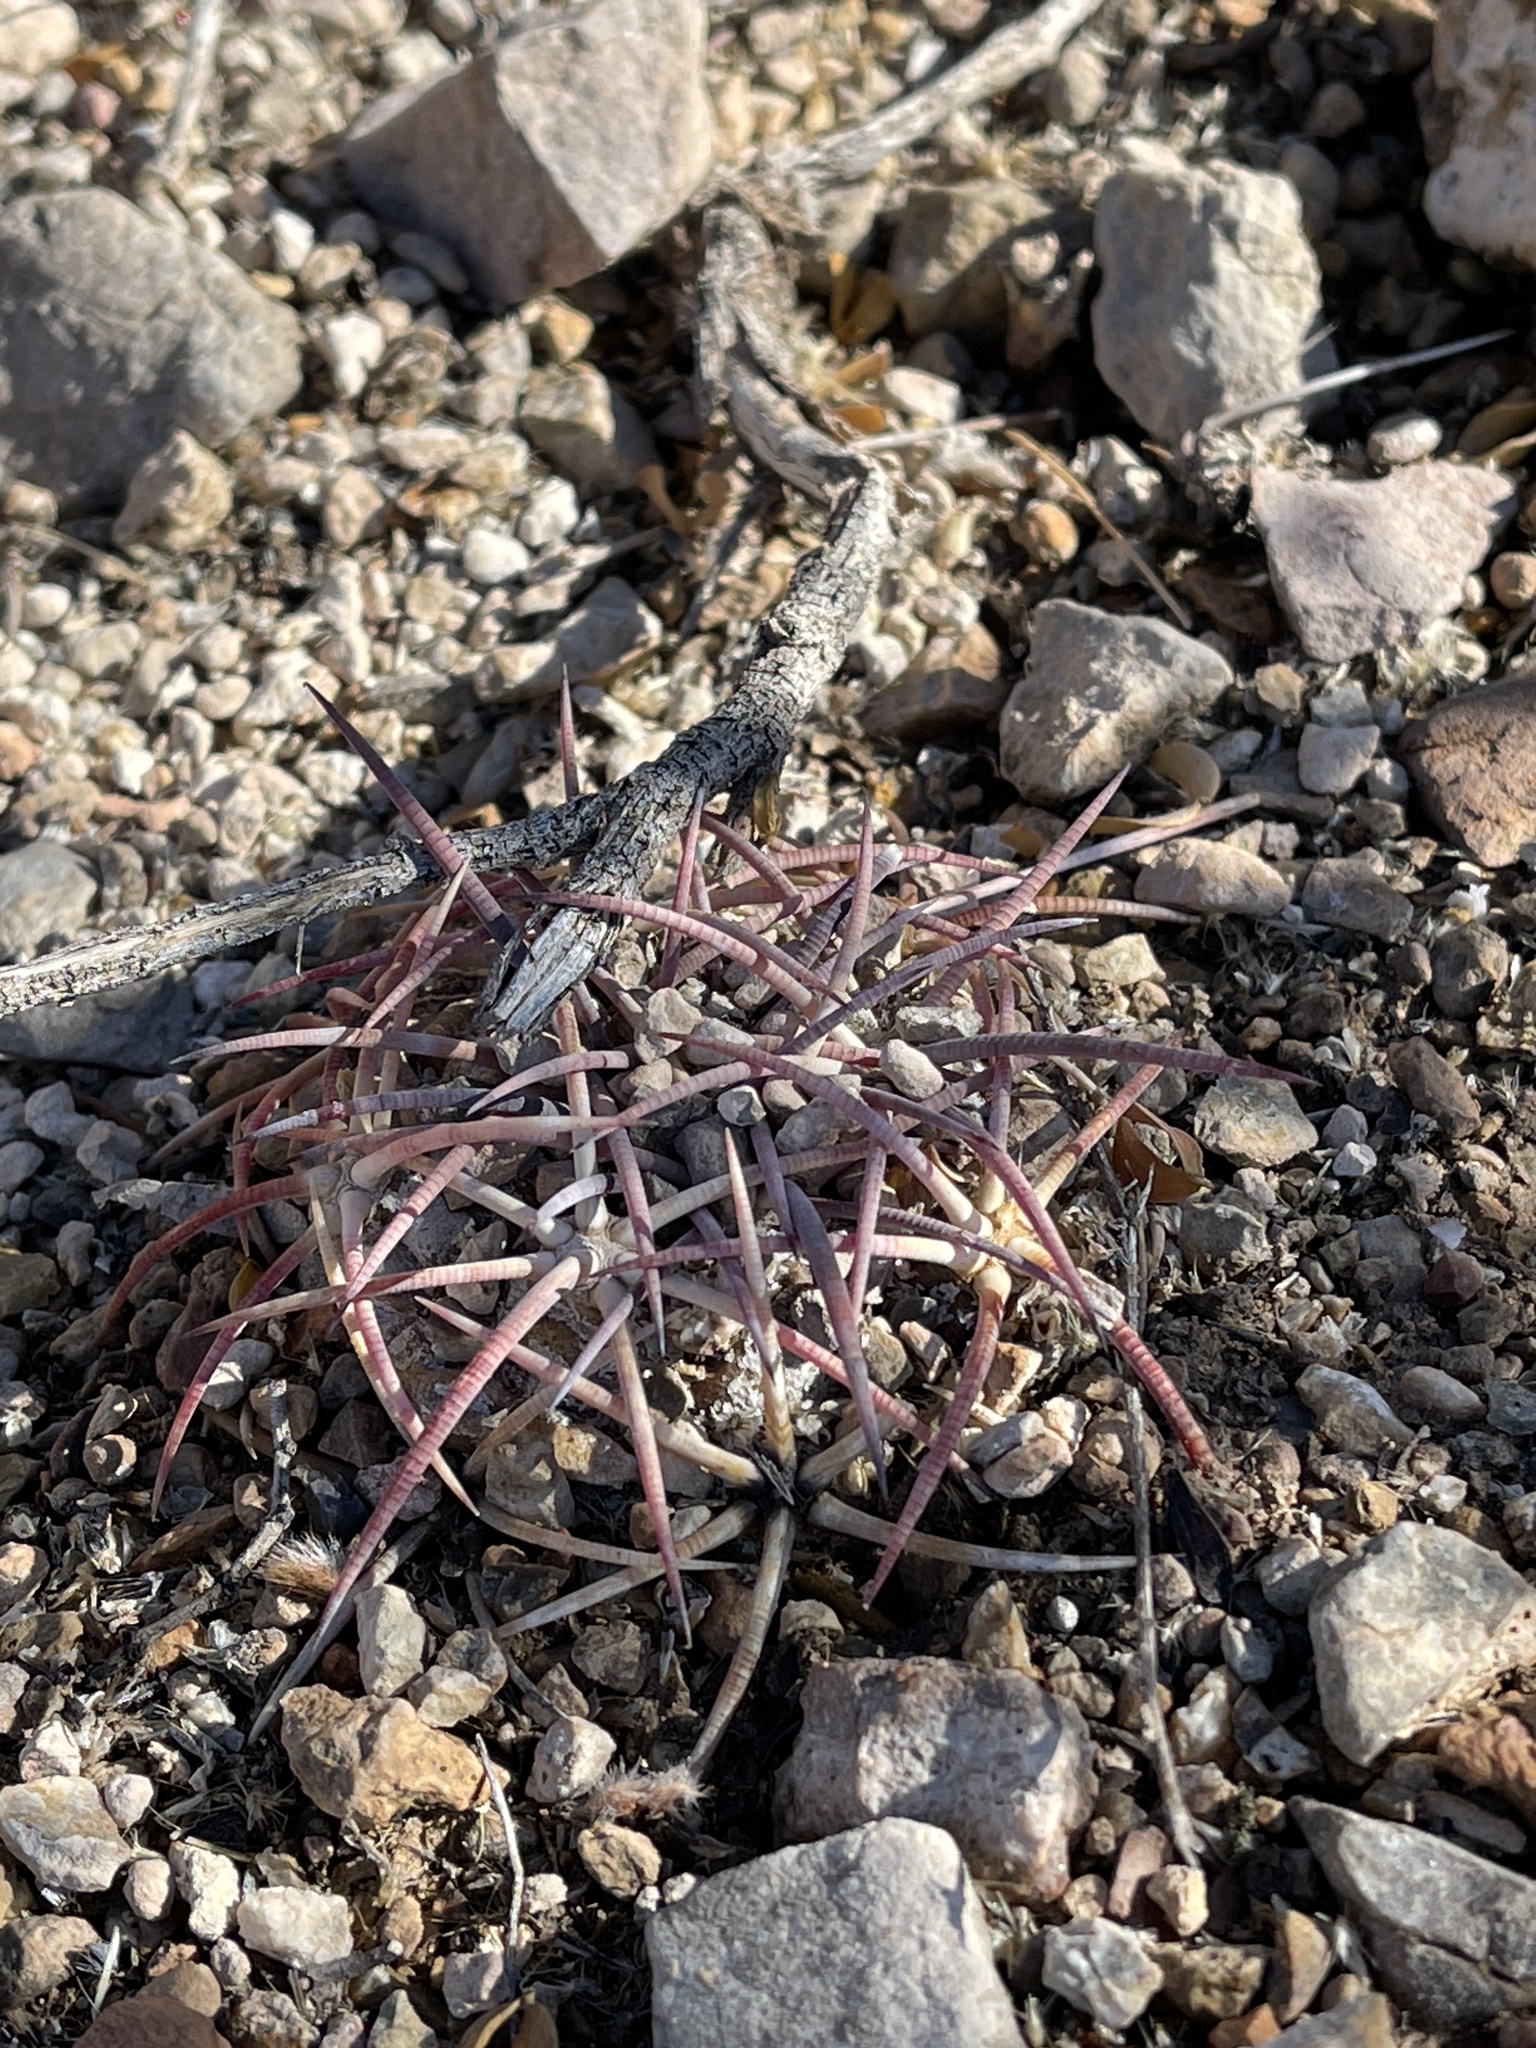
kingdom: Plantae
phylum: Tracheophyta
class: Magnoliopsida
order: Caryophyllales
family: Cactaceae
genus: Echinocactus
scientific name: Echinocactus horizonthalonius
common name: Devilshead
